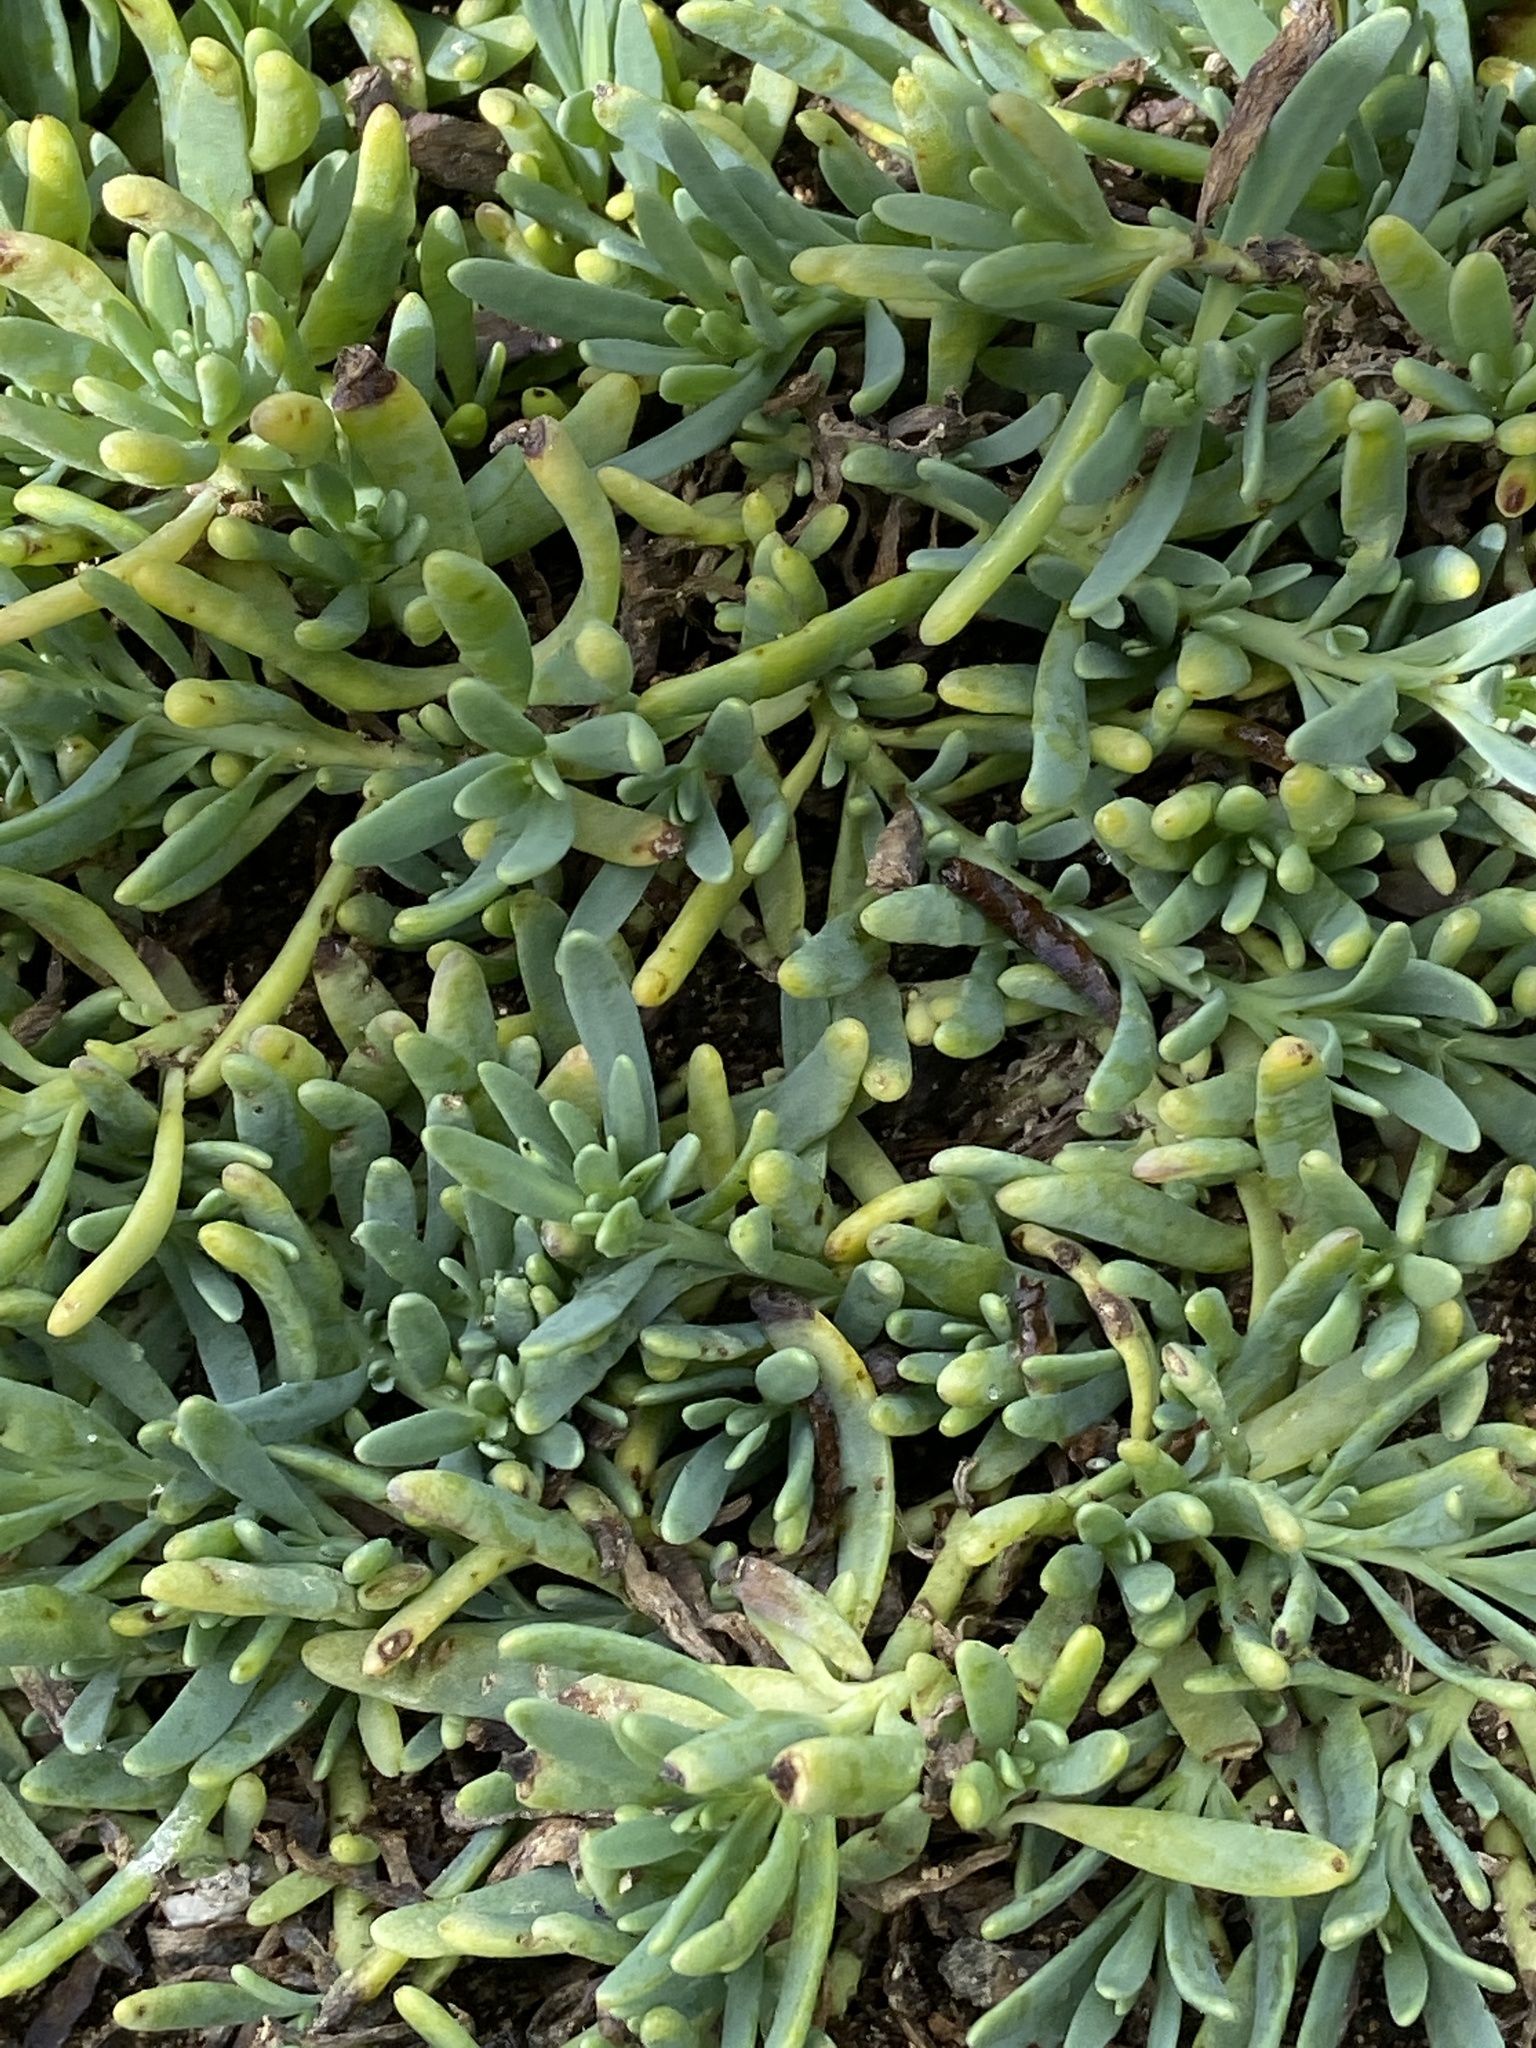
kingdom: Plantae
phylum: Tracheophyta
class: Magnoliopsida
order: Caryophyllales
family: Aizoaceae
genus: Sesuvium
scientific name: Sesuvium portulacastrum
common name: Sea-purslane
